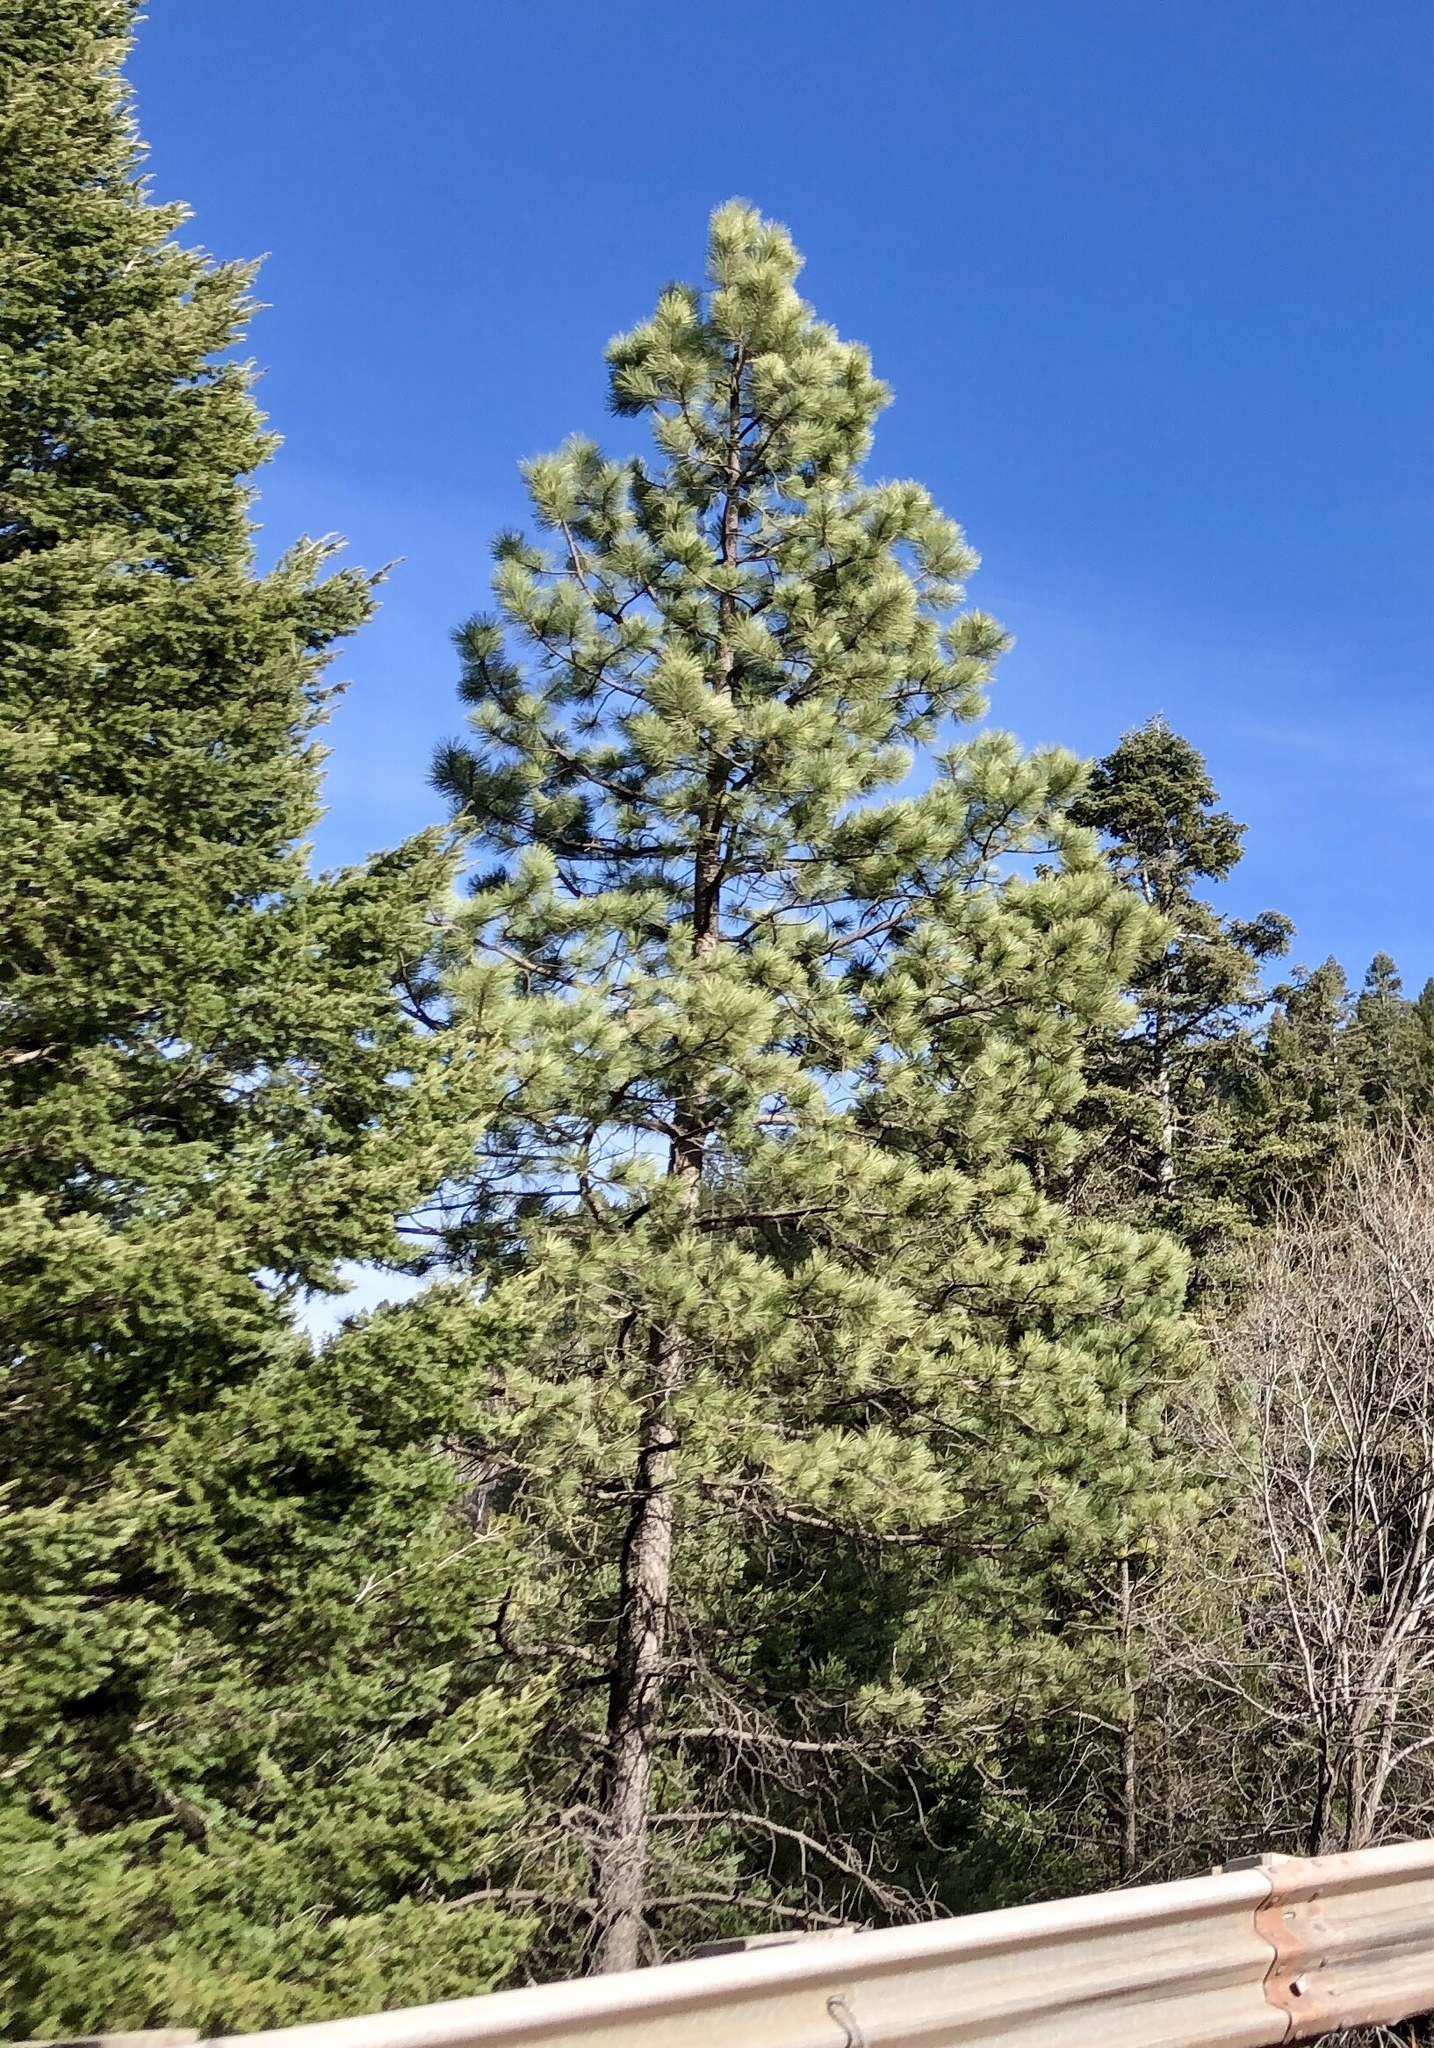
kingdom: Plantae
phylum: Tracheophyta
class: Pinopsida
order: Pinales
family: Pinaceae
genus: Pinus
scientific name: Pinus ponderosa
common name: Western yellow-pine
